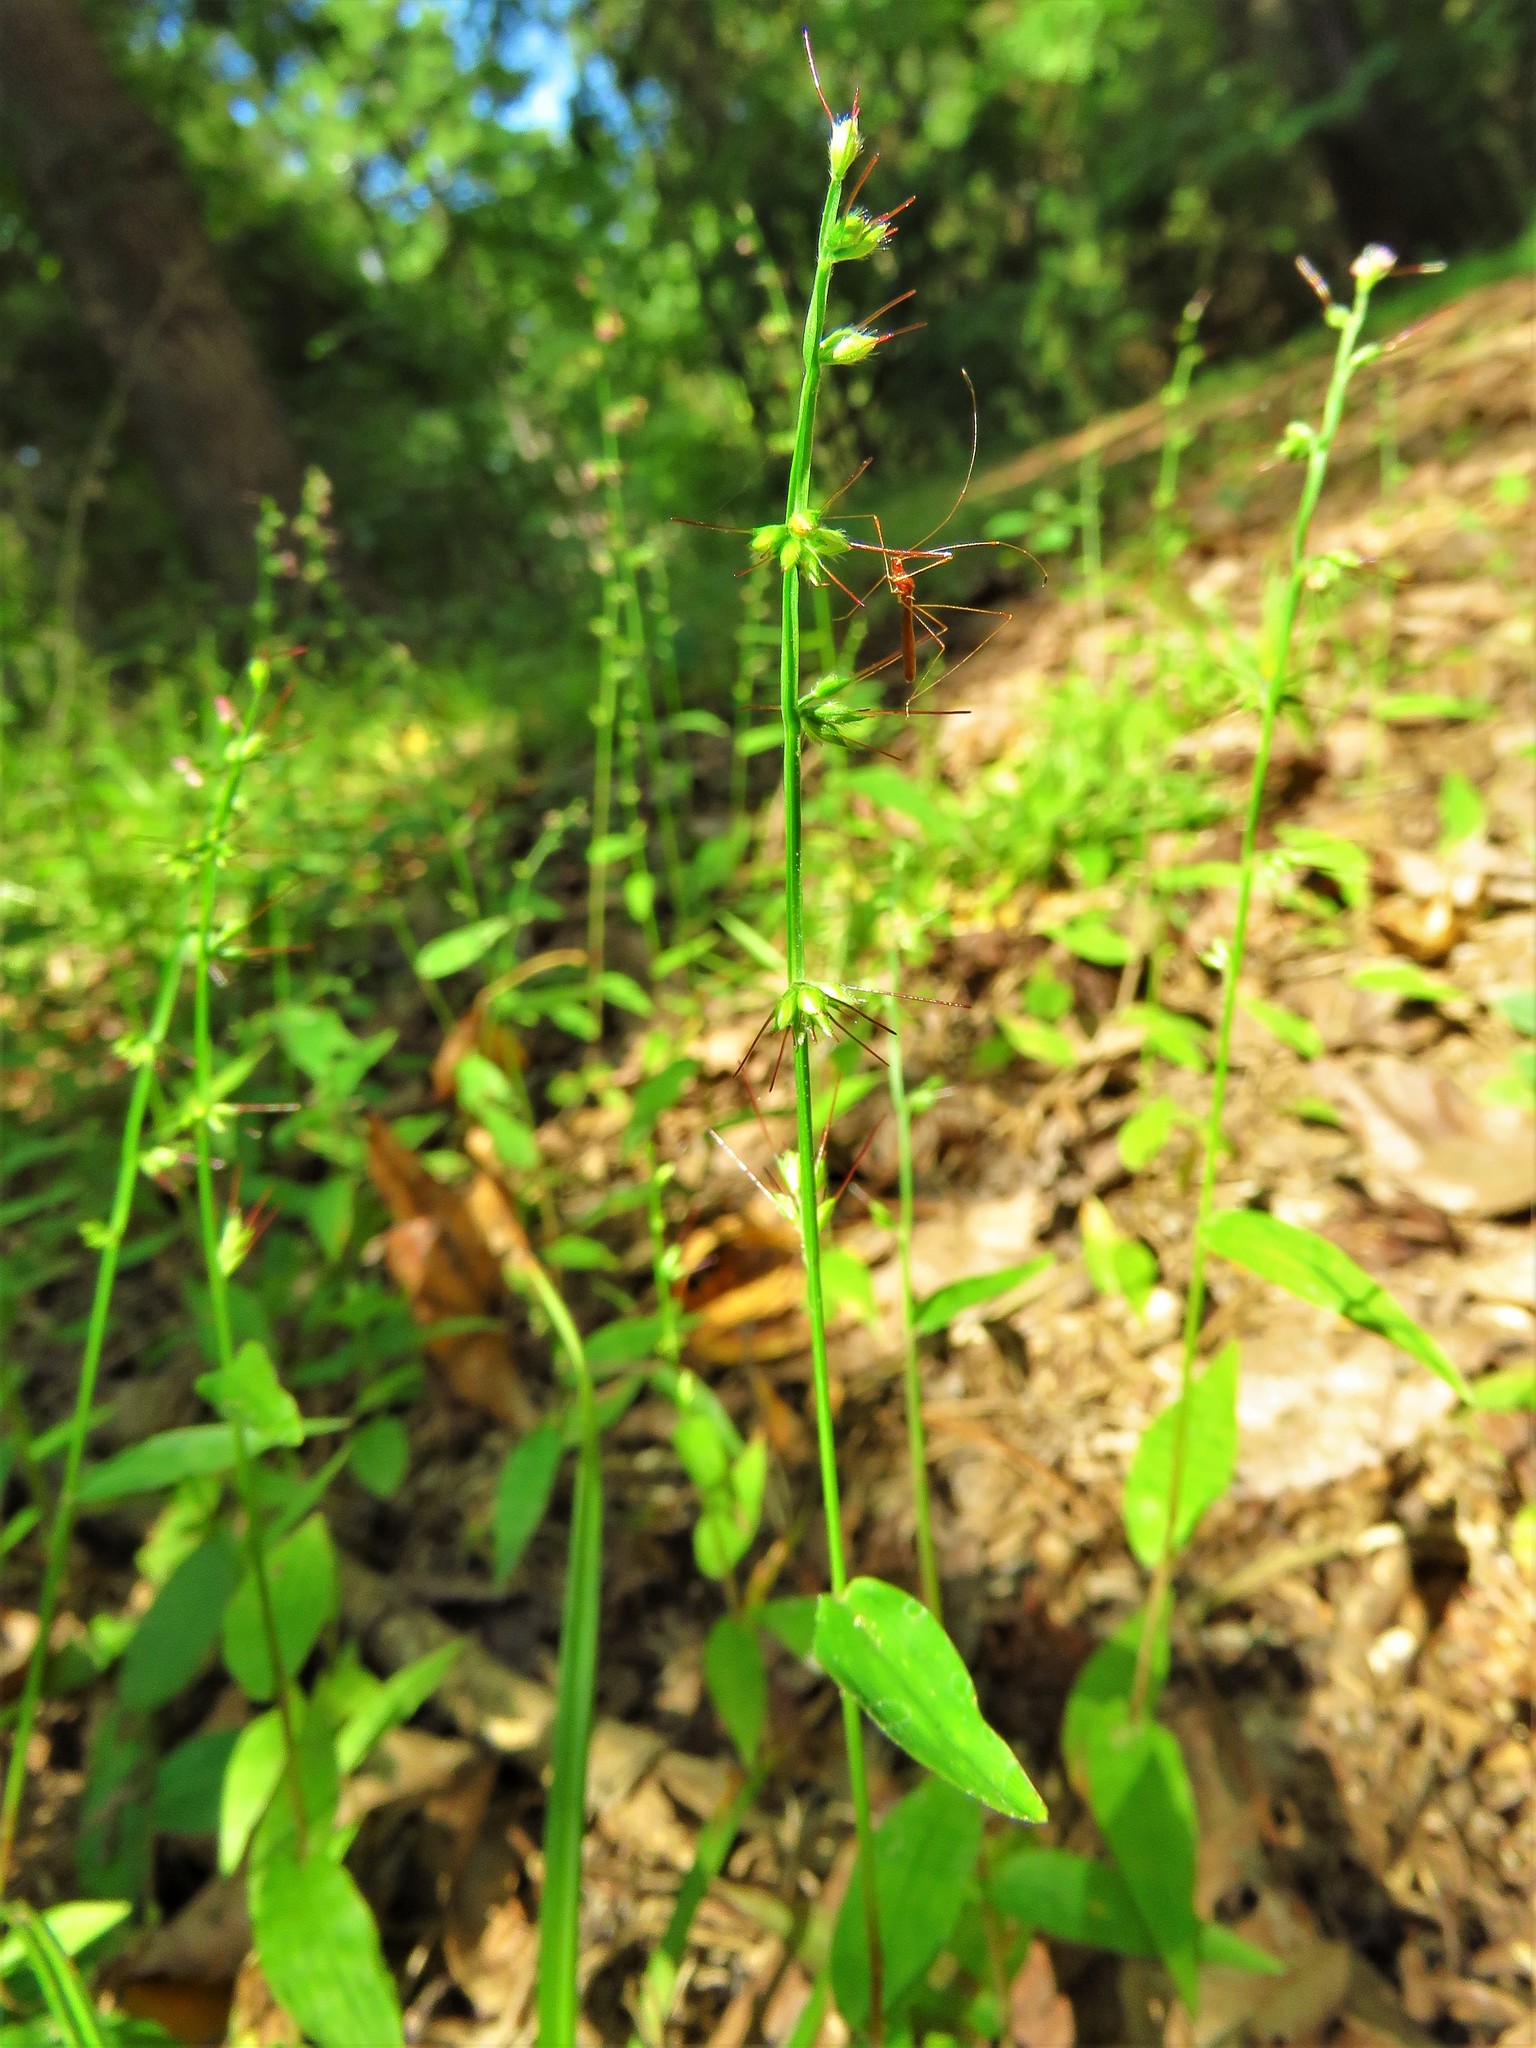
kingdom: Plantae
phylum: Tracheophyta
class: Liliopsida
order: Poales
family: Poaceae
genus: Oplismenus
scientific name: Oplismenus hirtellus
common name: Basketgrass
